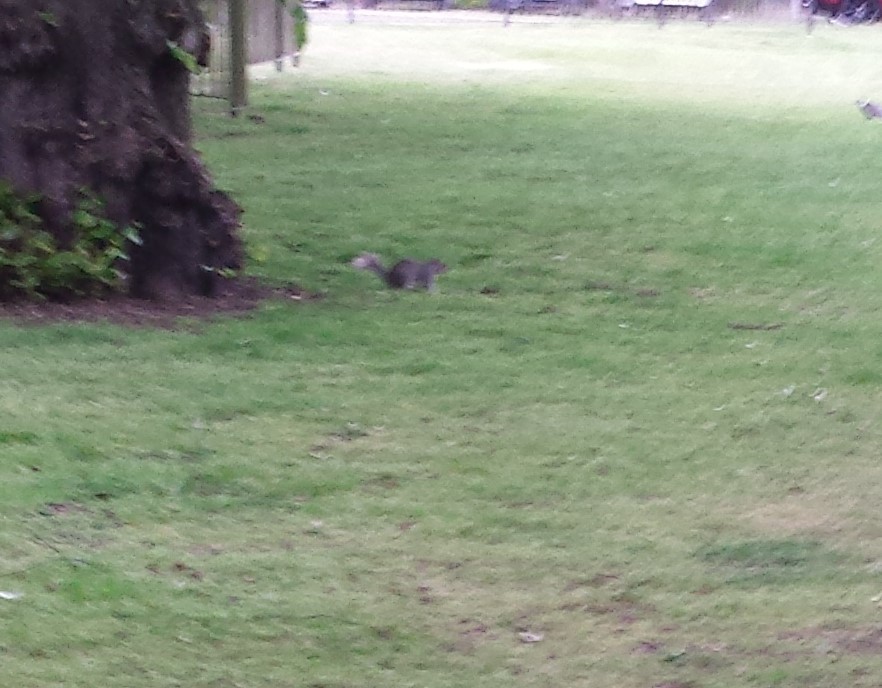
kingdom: Animalia
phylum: Chordata
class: Mammalia
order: Rodentia
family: Sciuridae
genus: Sciurus
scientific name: Sciurus carolinensis
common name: Eastern gray squirrel
